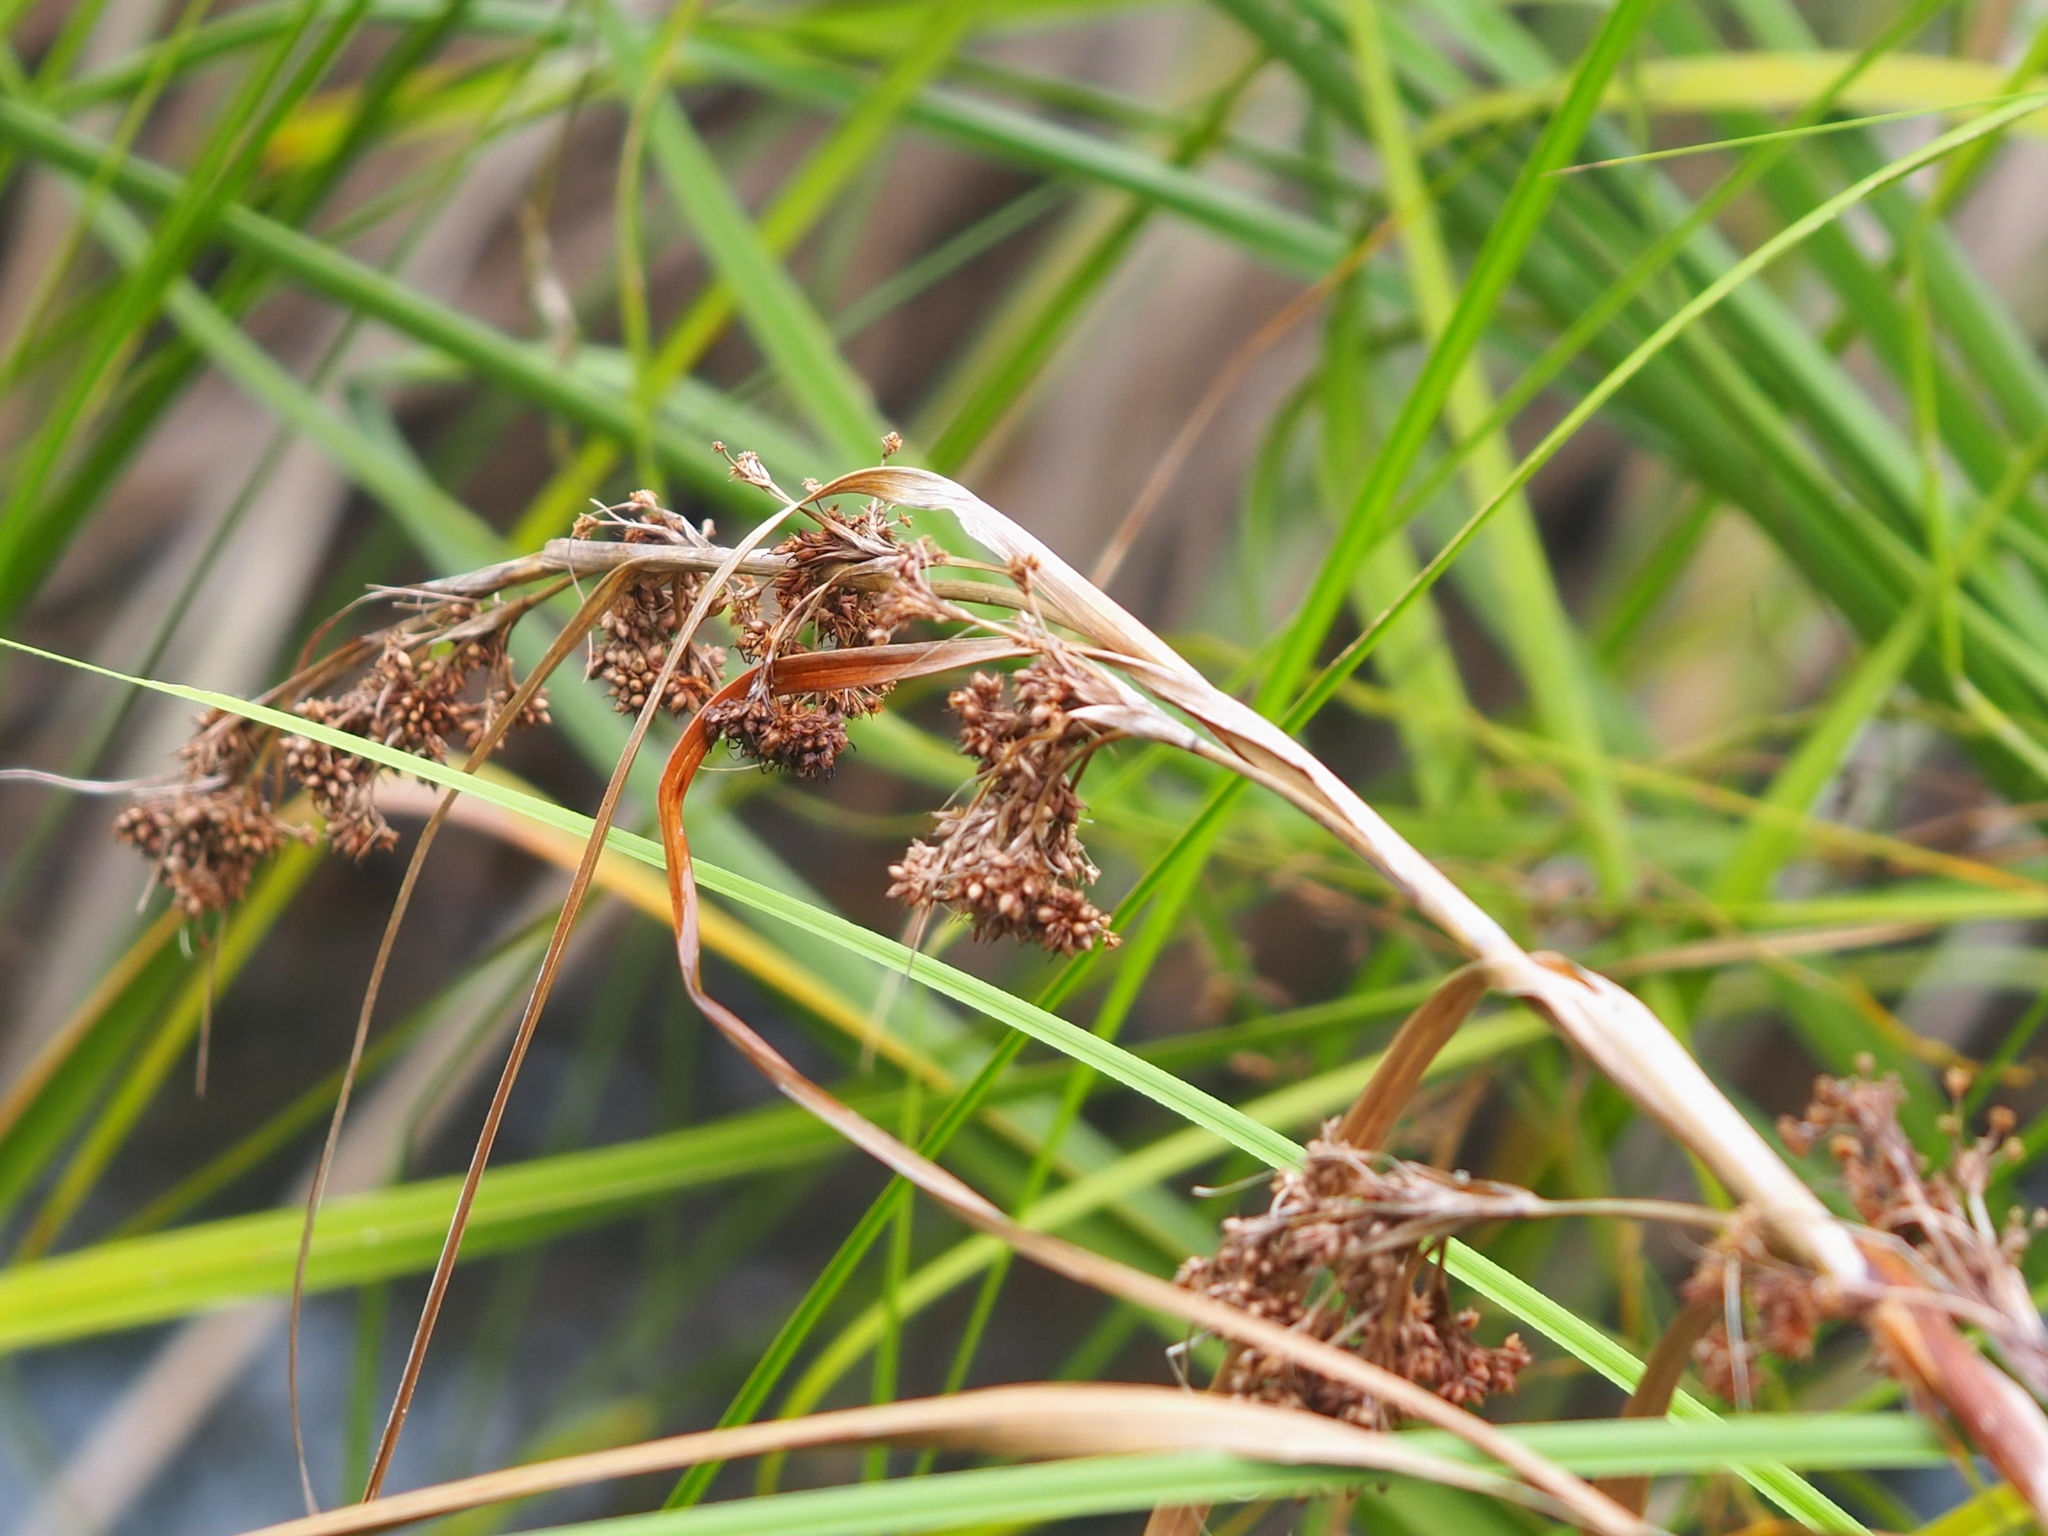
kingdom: Plantae
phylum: Tracheophyta
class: Liliopsida
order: Poales
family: Cyperaceae
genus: Cladium
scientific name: Cladium mariscus
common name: Great fen-sedge
